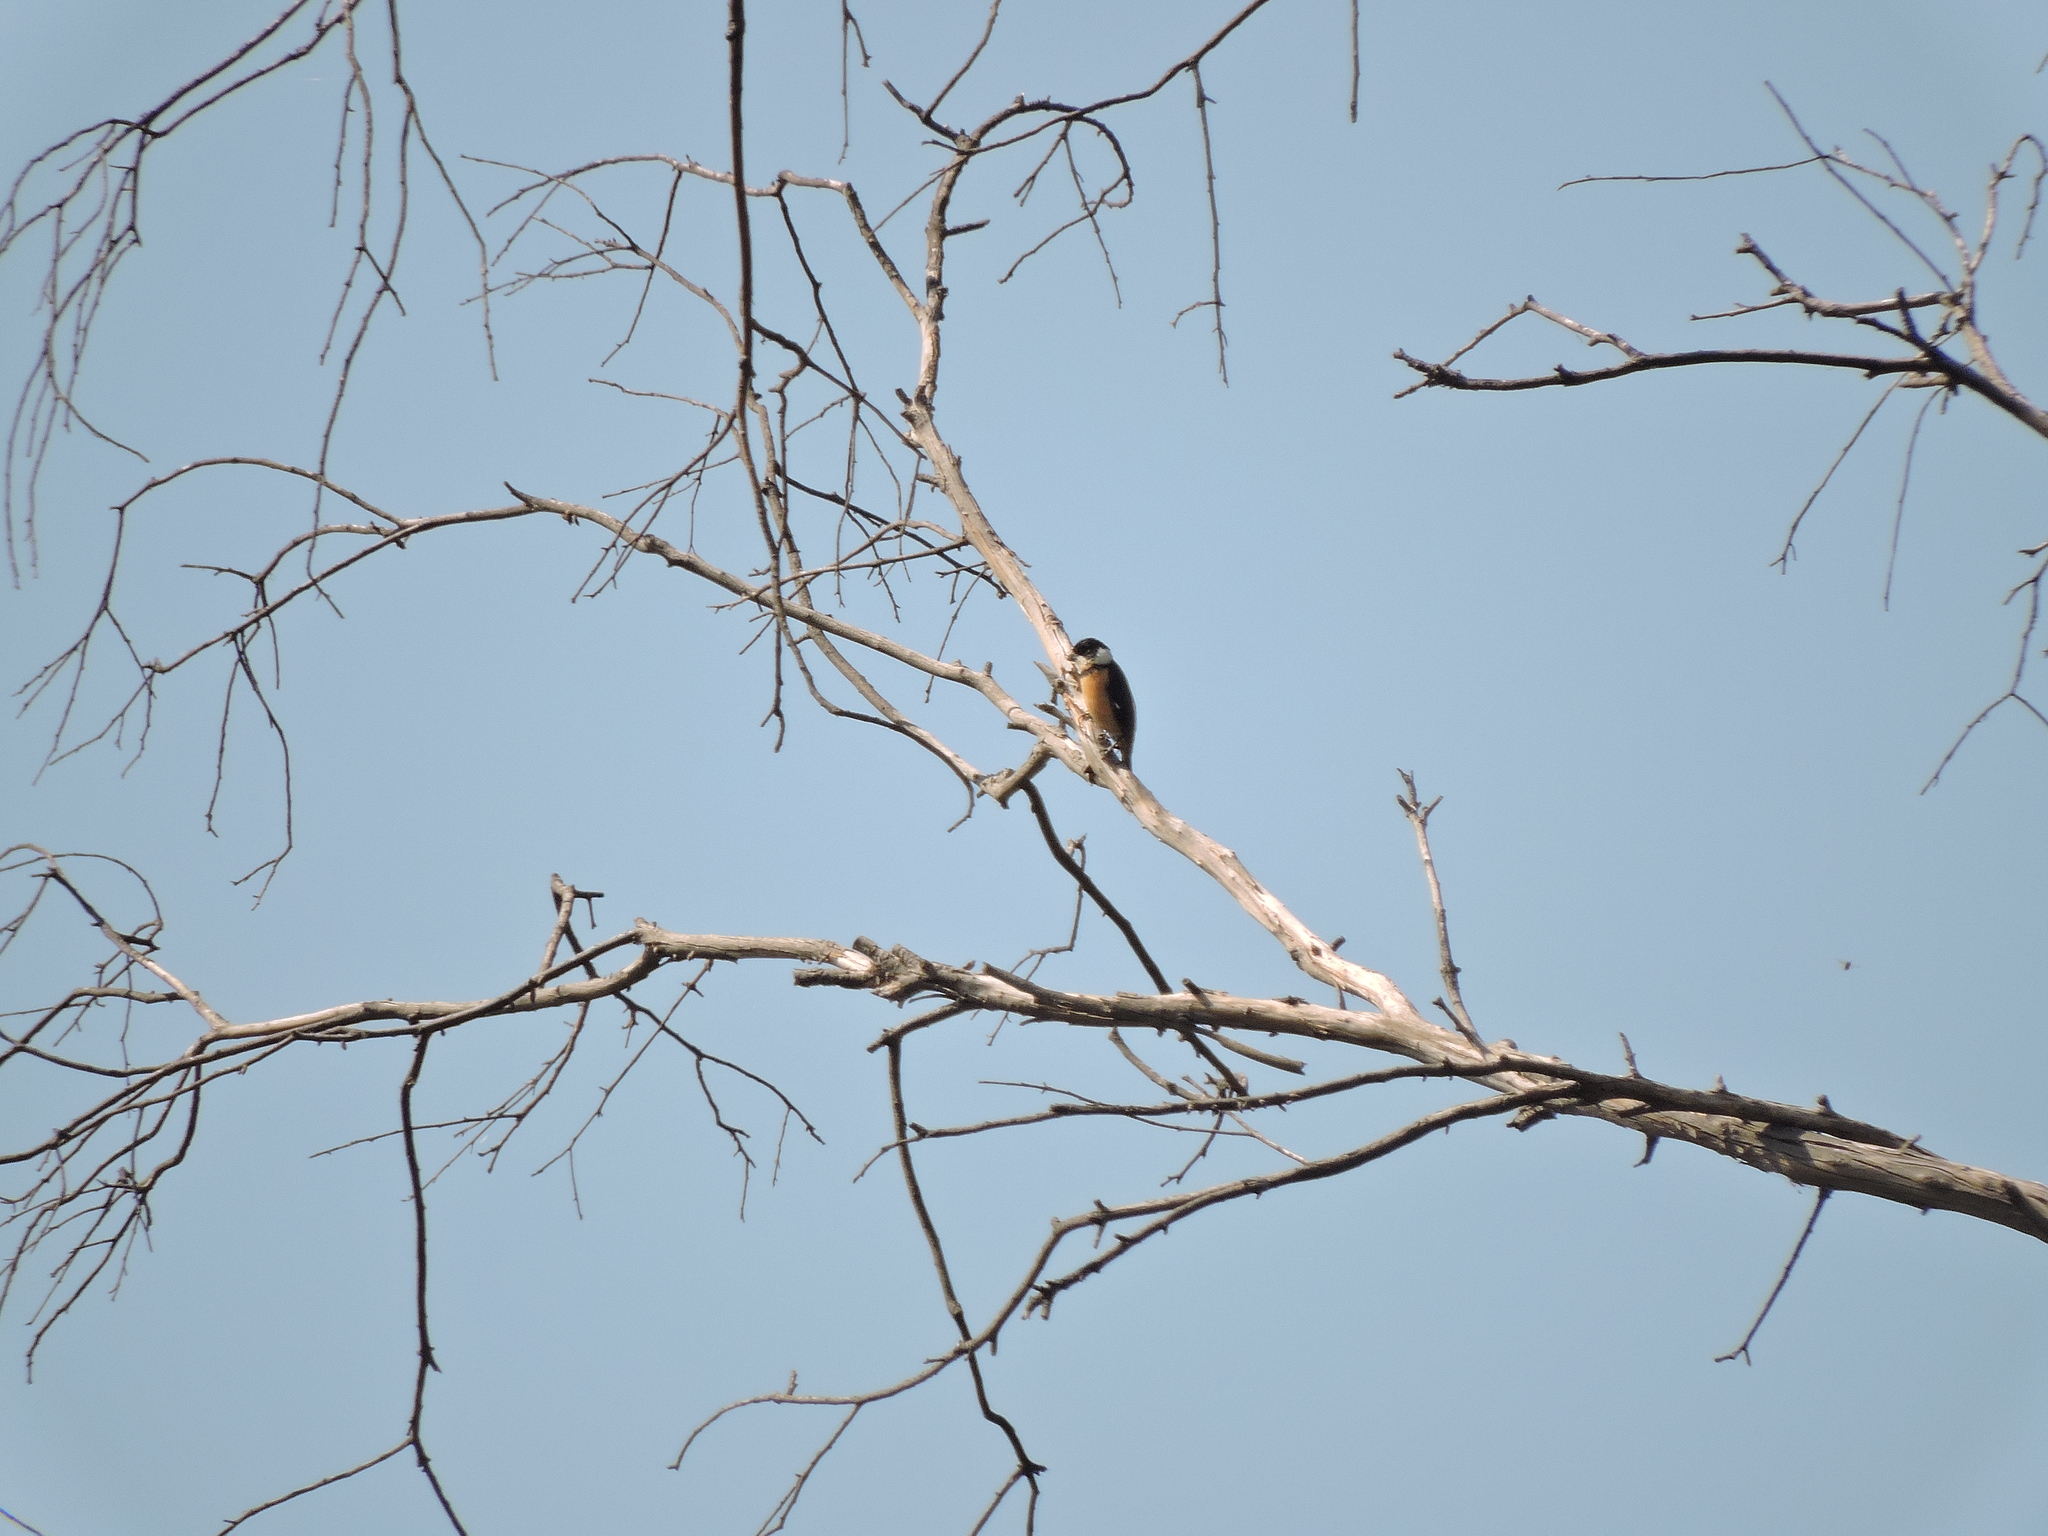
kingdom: Animalia
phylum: Chordata
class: Aves
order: Passeriformes
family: Thraupidae
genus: Sporophila
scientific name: Sporophila torqueola
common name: White-collared seedeater
